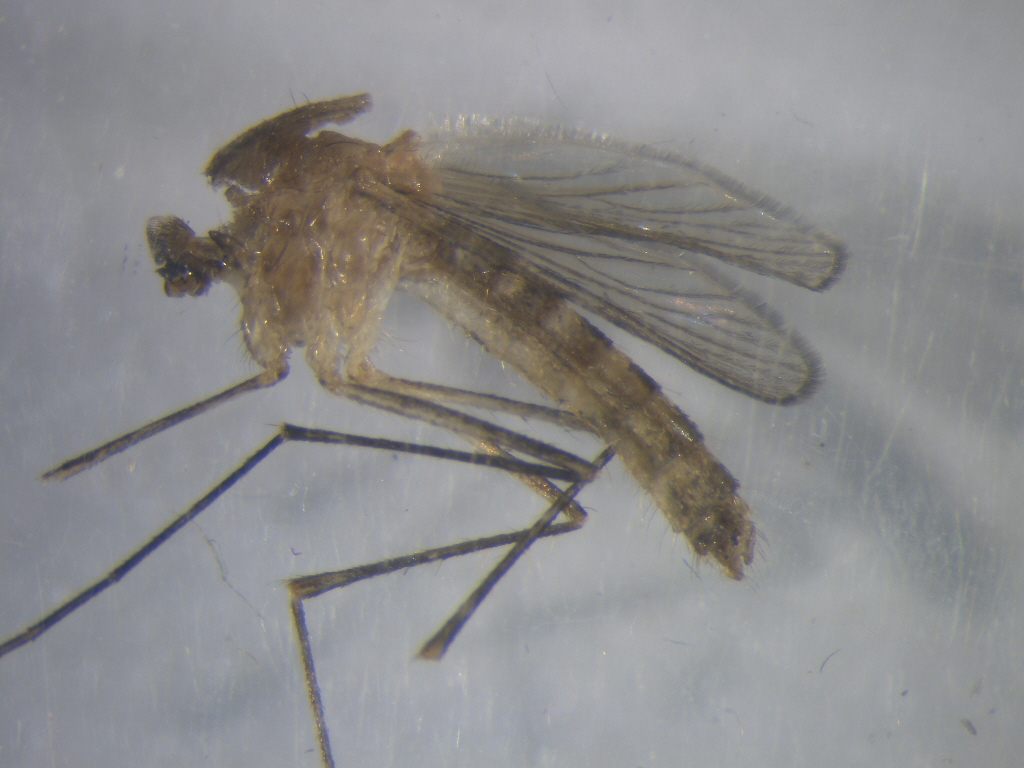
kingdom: Animalia
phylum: Arthropoda
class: Insecta
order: Diptera
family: Culicidae
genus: Culex
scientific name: Culex quinquefasciatus
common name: Southern house mosquito
